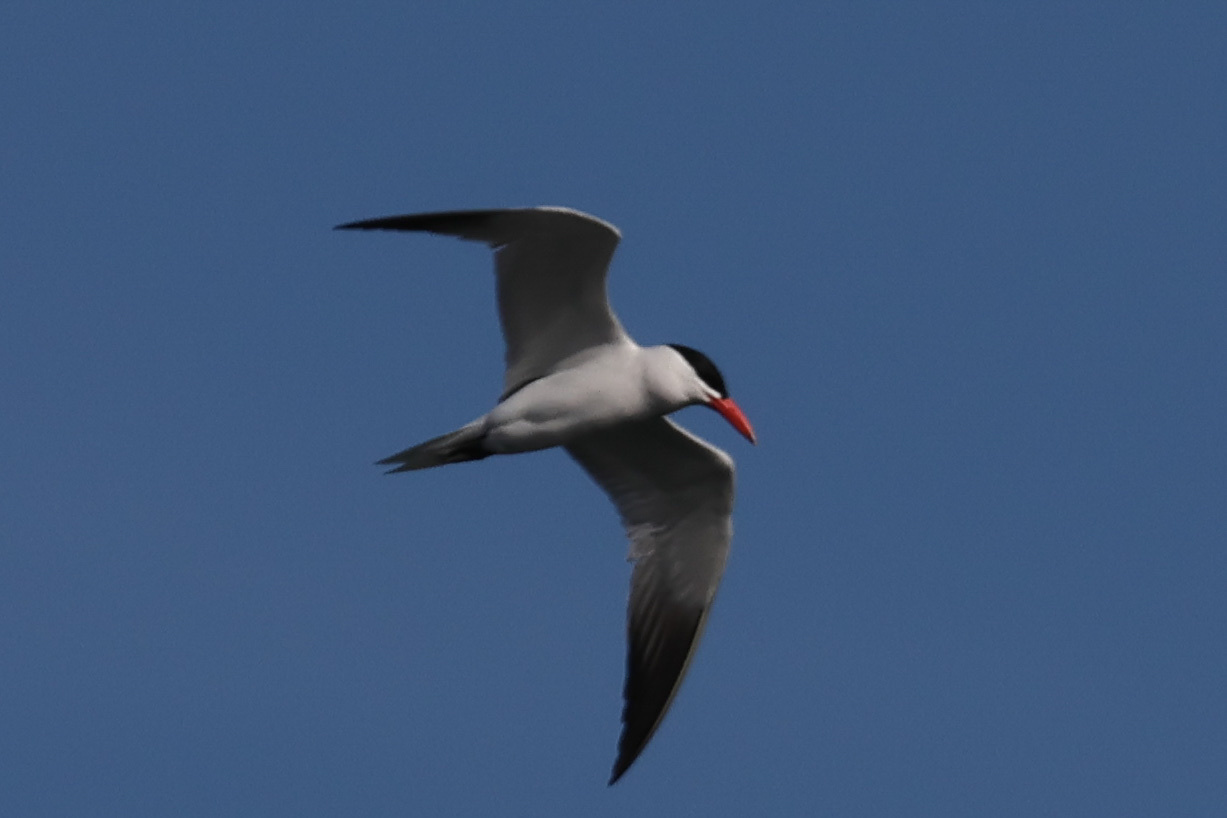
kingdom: Animalia
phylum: Chordata
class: Aves
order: Charadriiformes
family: Laridae
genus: Hydroprogne
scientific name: Hydroprogne caspia
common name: Caspian tern
